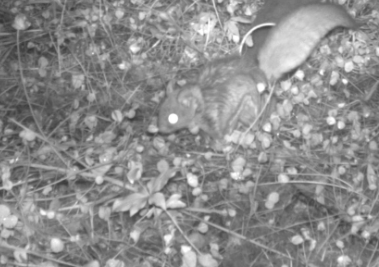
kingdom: Animalia
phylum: Chordata
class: Mammalia
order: Rodentia
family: Sciuridae
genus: Glaucomys
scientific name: Glaucomys sabrinus
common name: Northern flying squirrel
